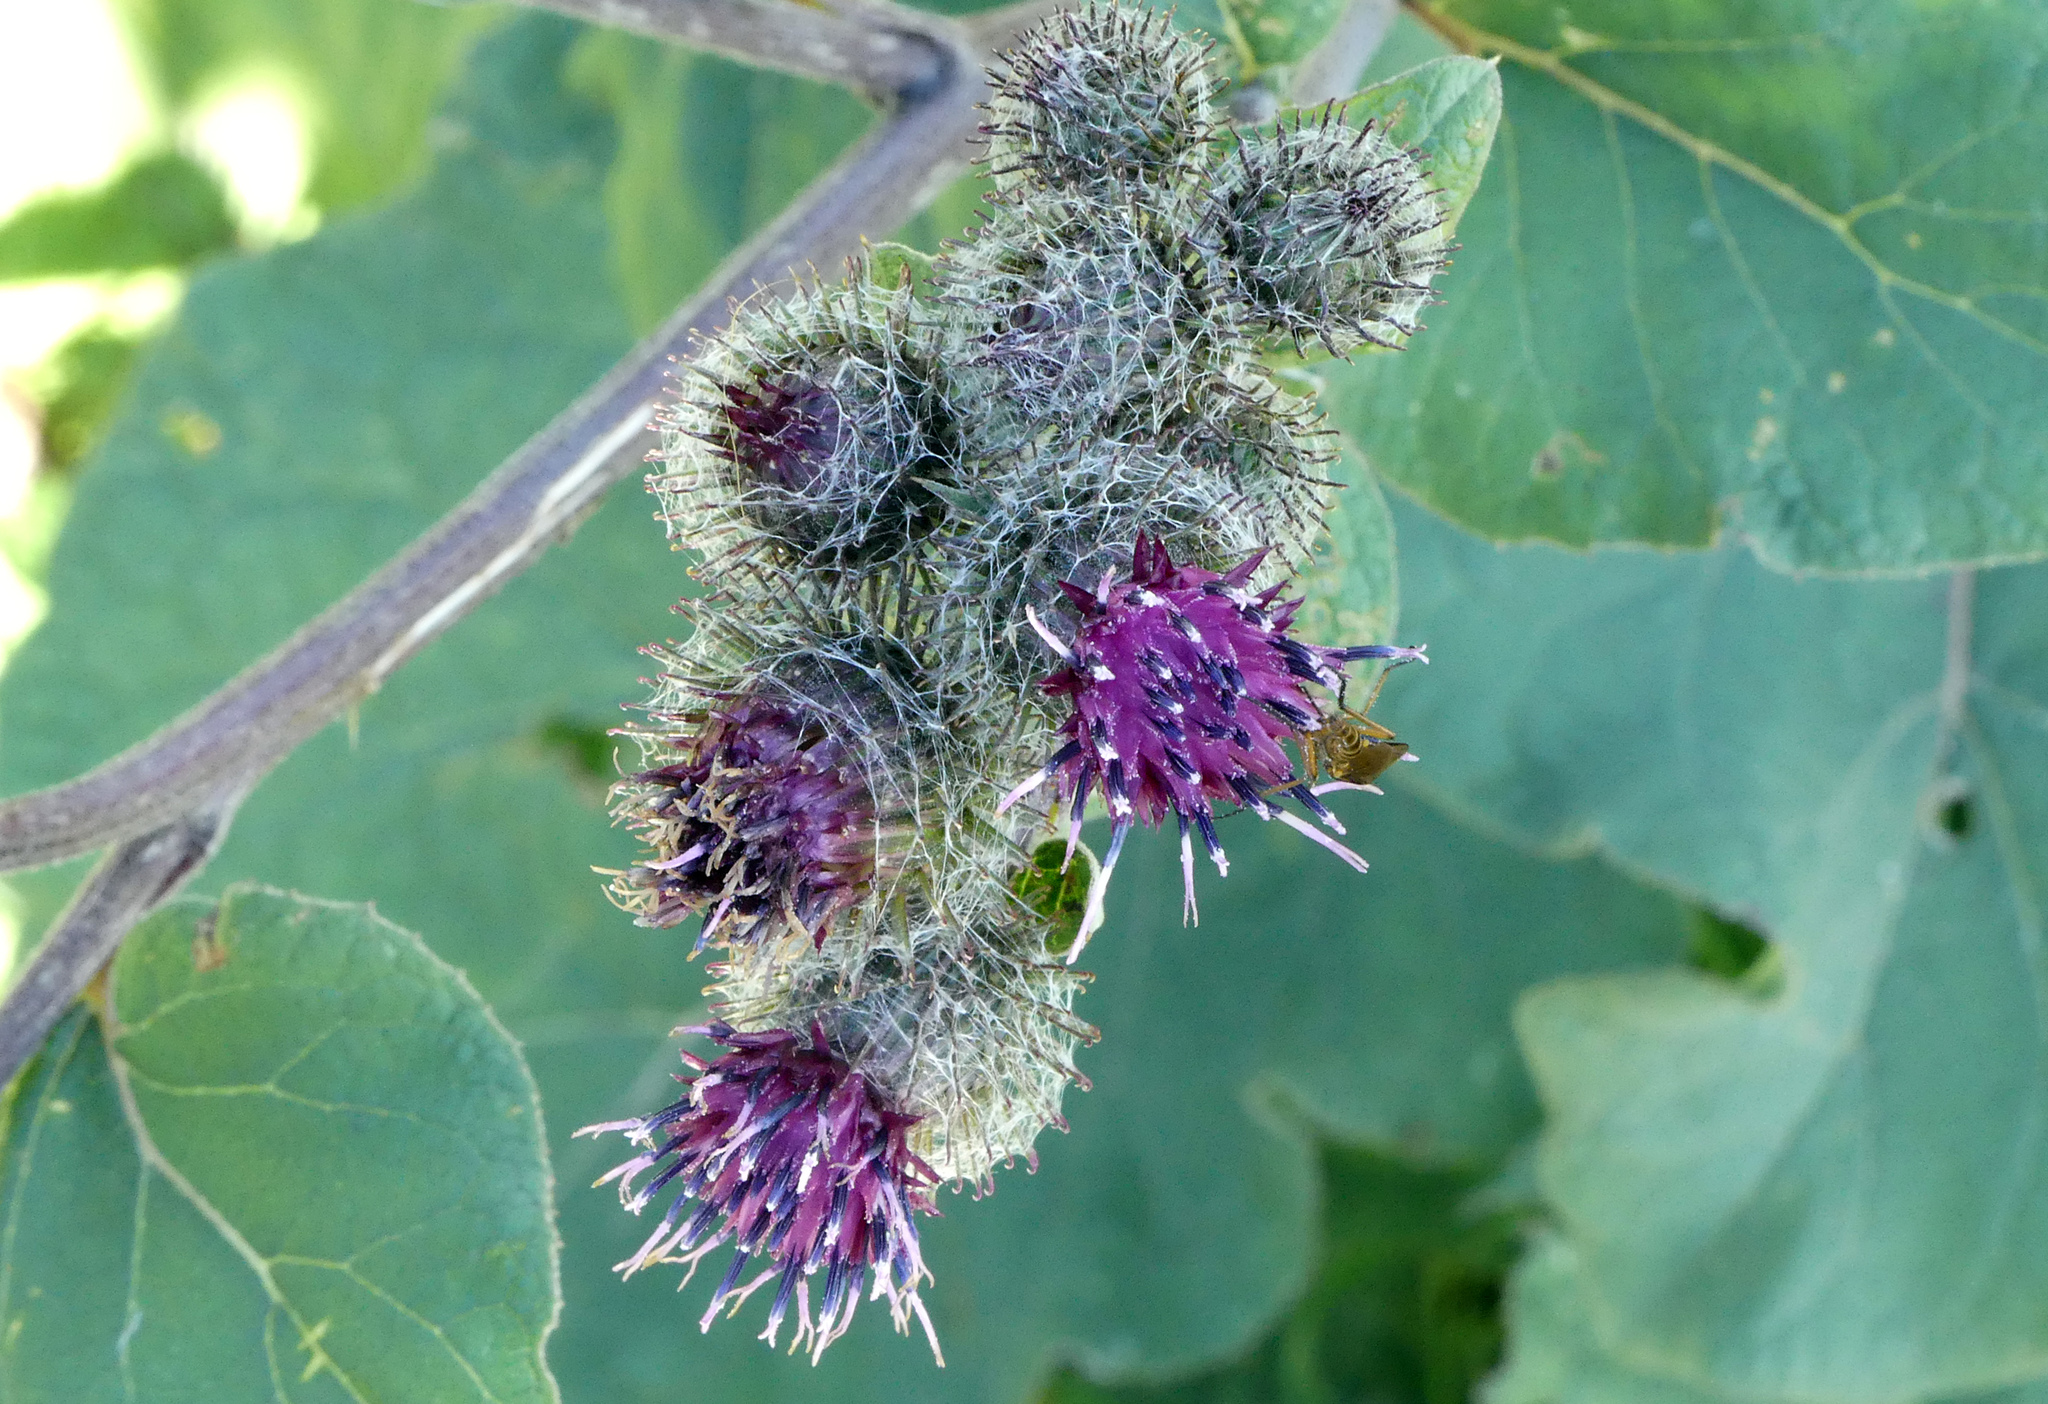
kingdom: Plantae
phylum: Tracheophyta
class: Magnoliopsida
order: Asterales
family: Asteraceae
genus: Arctium
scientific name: Arctium tomentosum
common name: Woolly burdock
